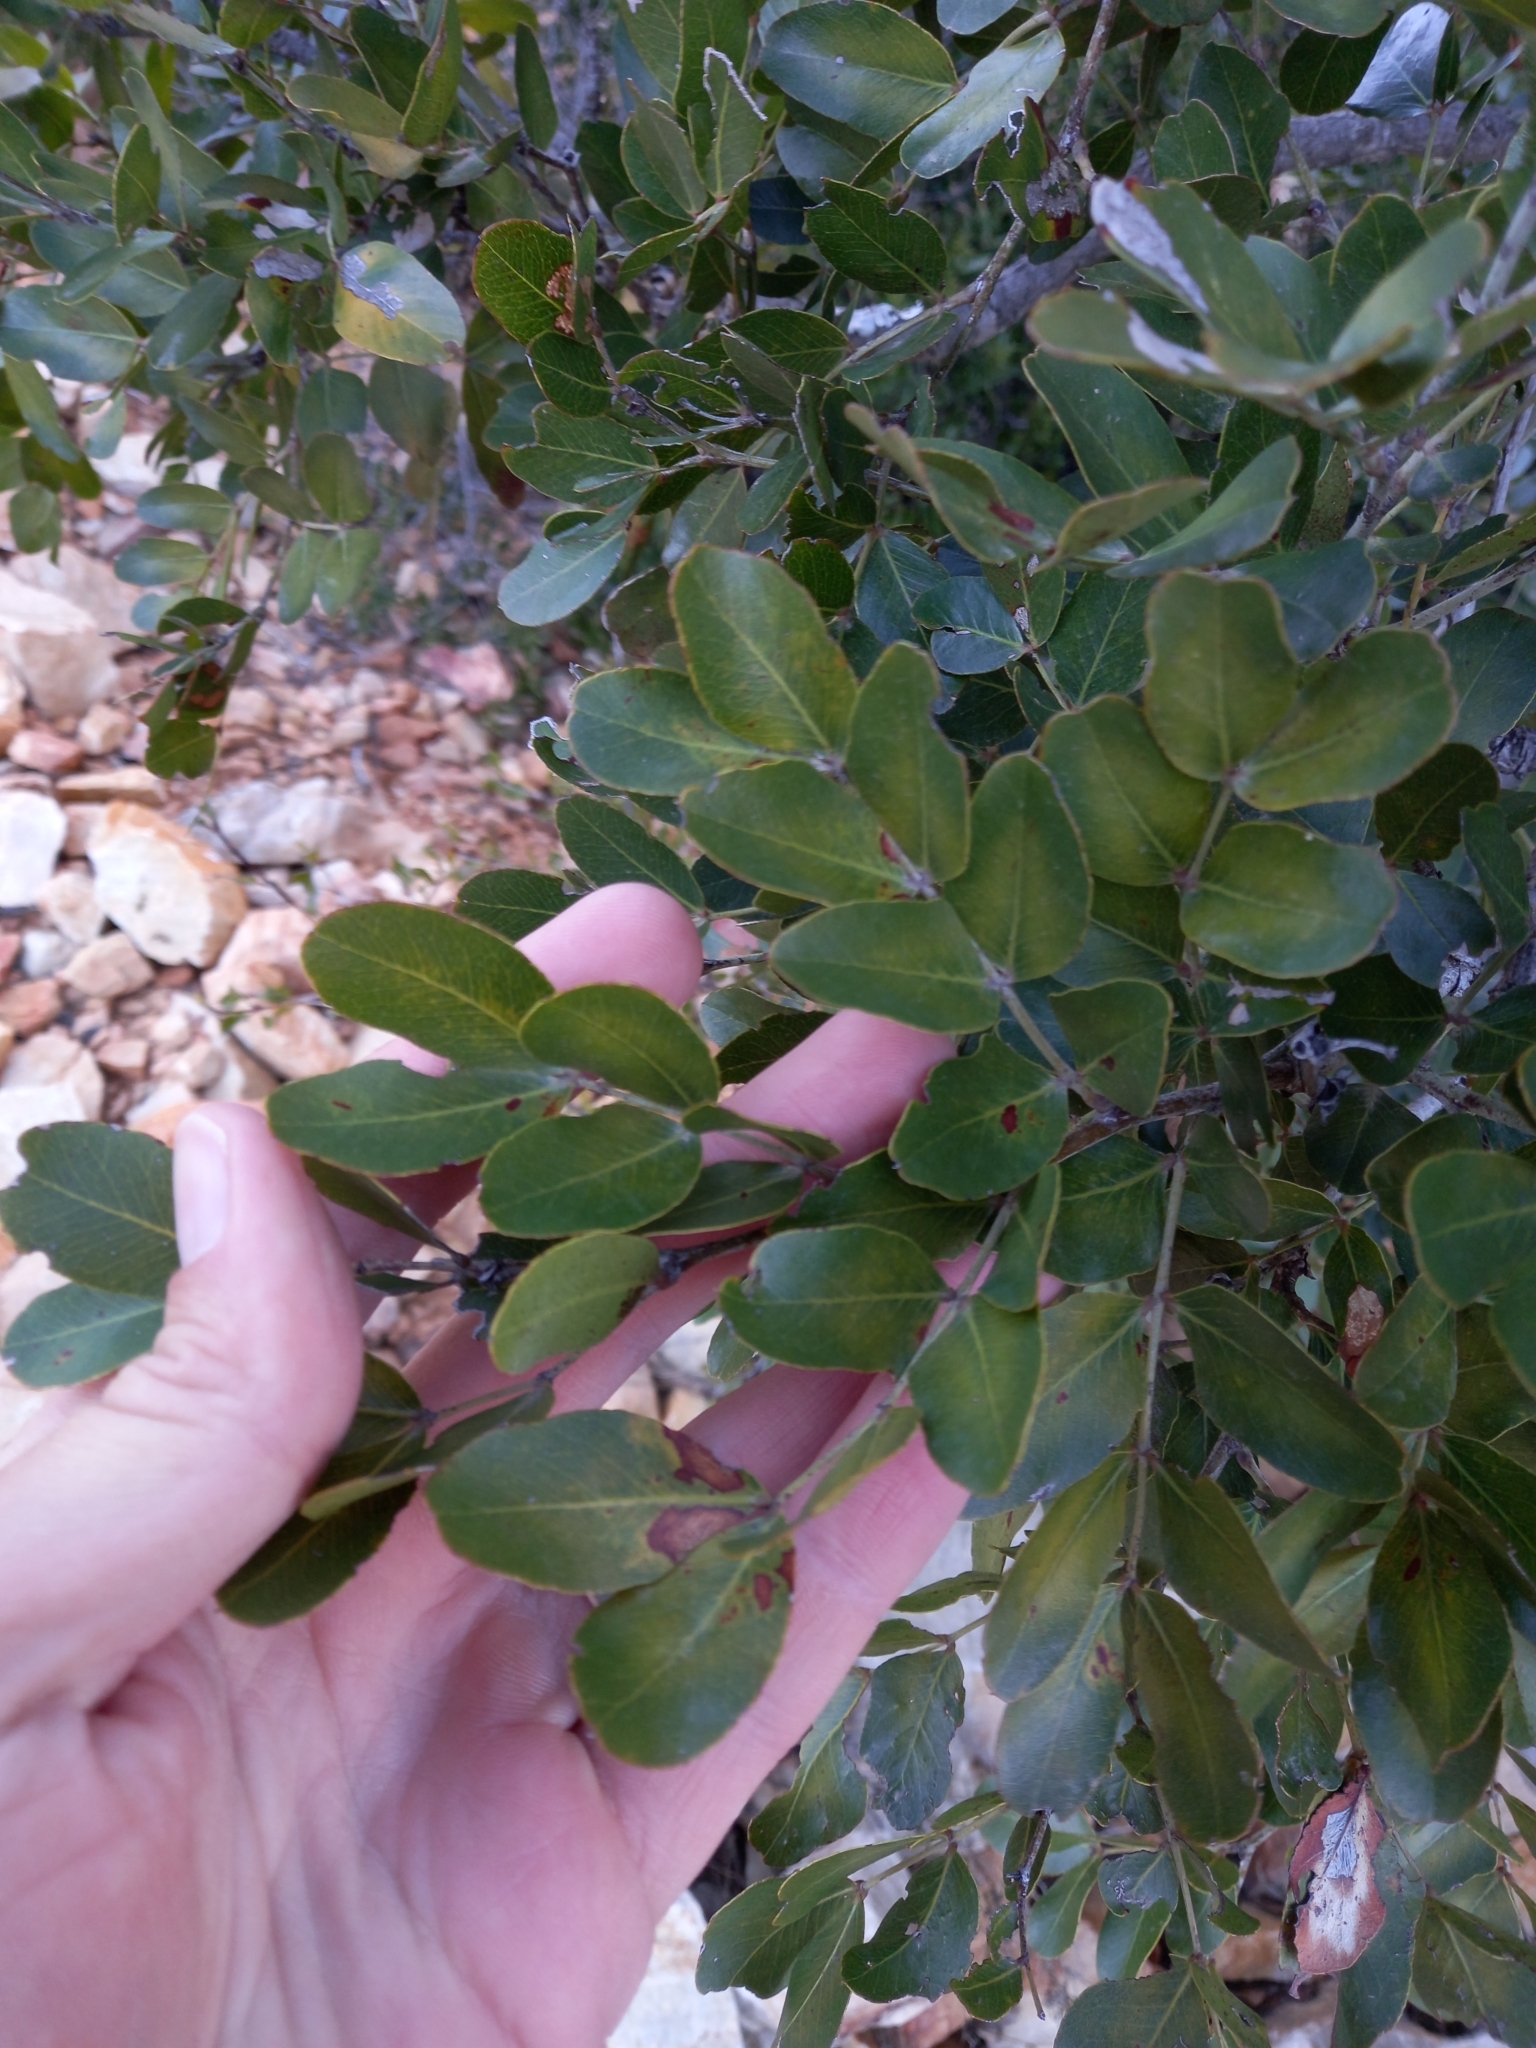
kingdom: Plantae
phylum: Tracheophyta
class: Magnoliopsida
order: Fabales
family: Fabaceae
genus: Schotia
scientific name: Schotia latifolia
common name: Bush boer-bean
